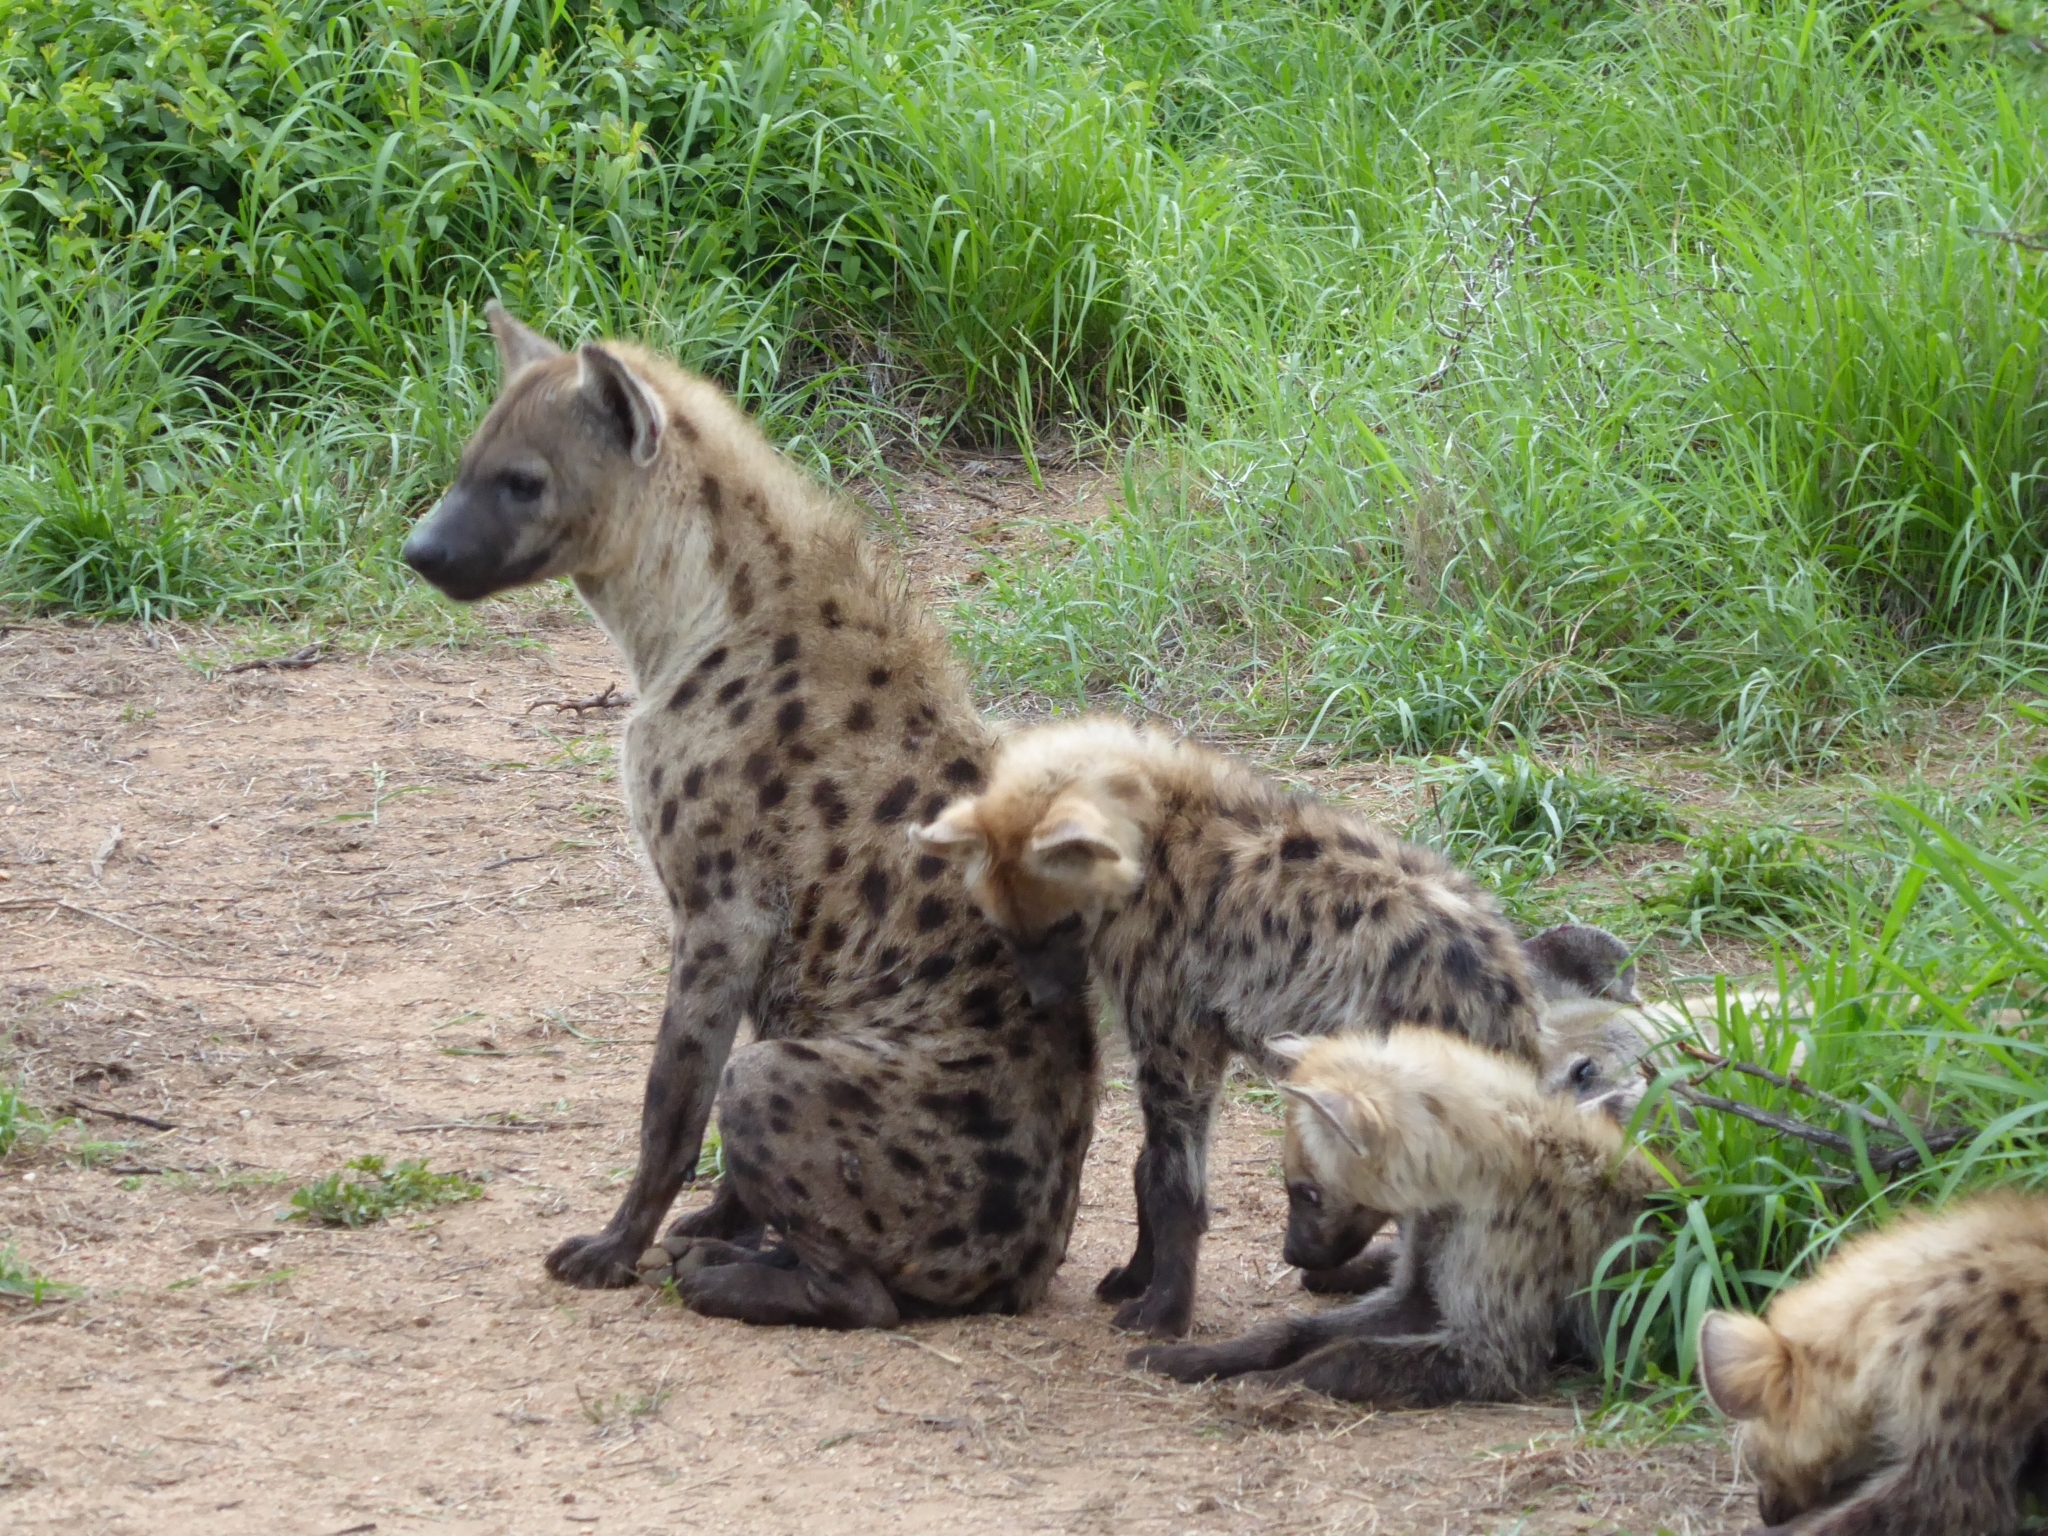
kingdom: Animalia
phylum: Chordata
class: Mammalia
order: Carnivora
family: Hyaenidae
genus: Crocuta
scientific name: Crocuta crocuta
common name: Spotted hyaena
